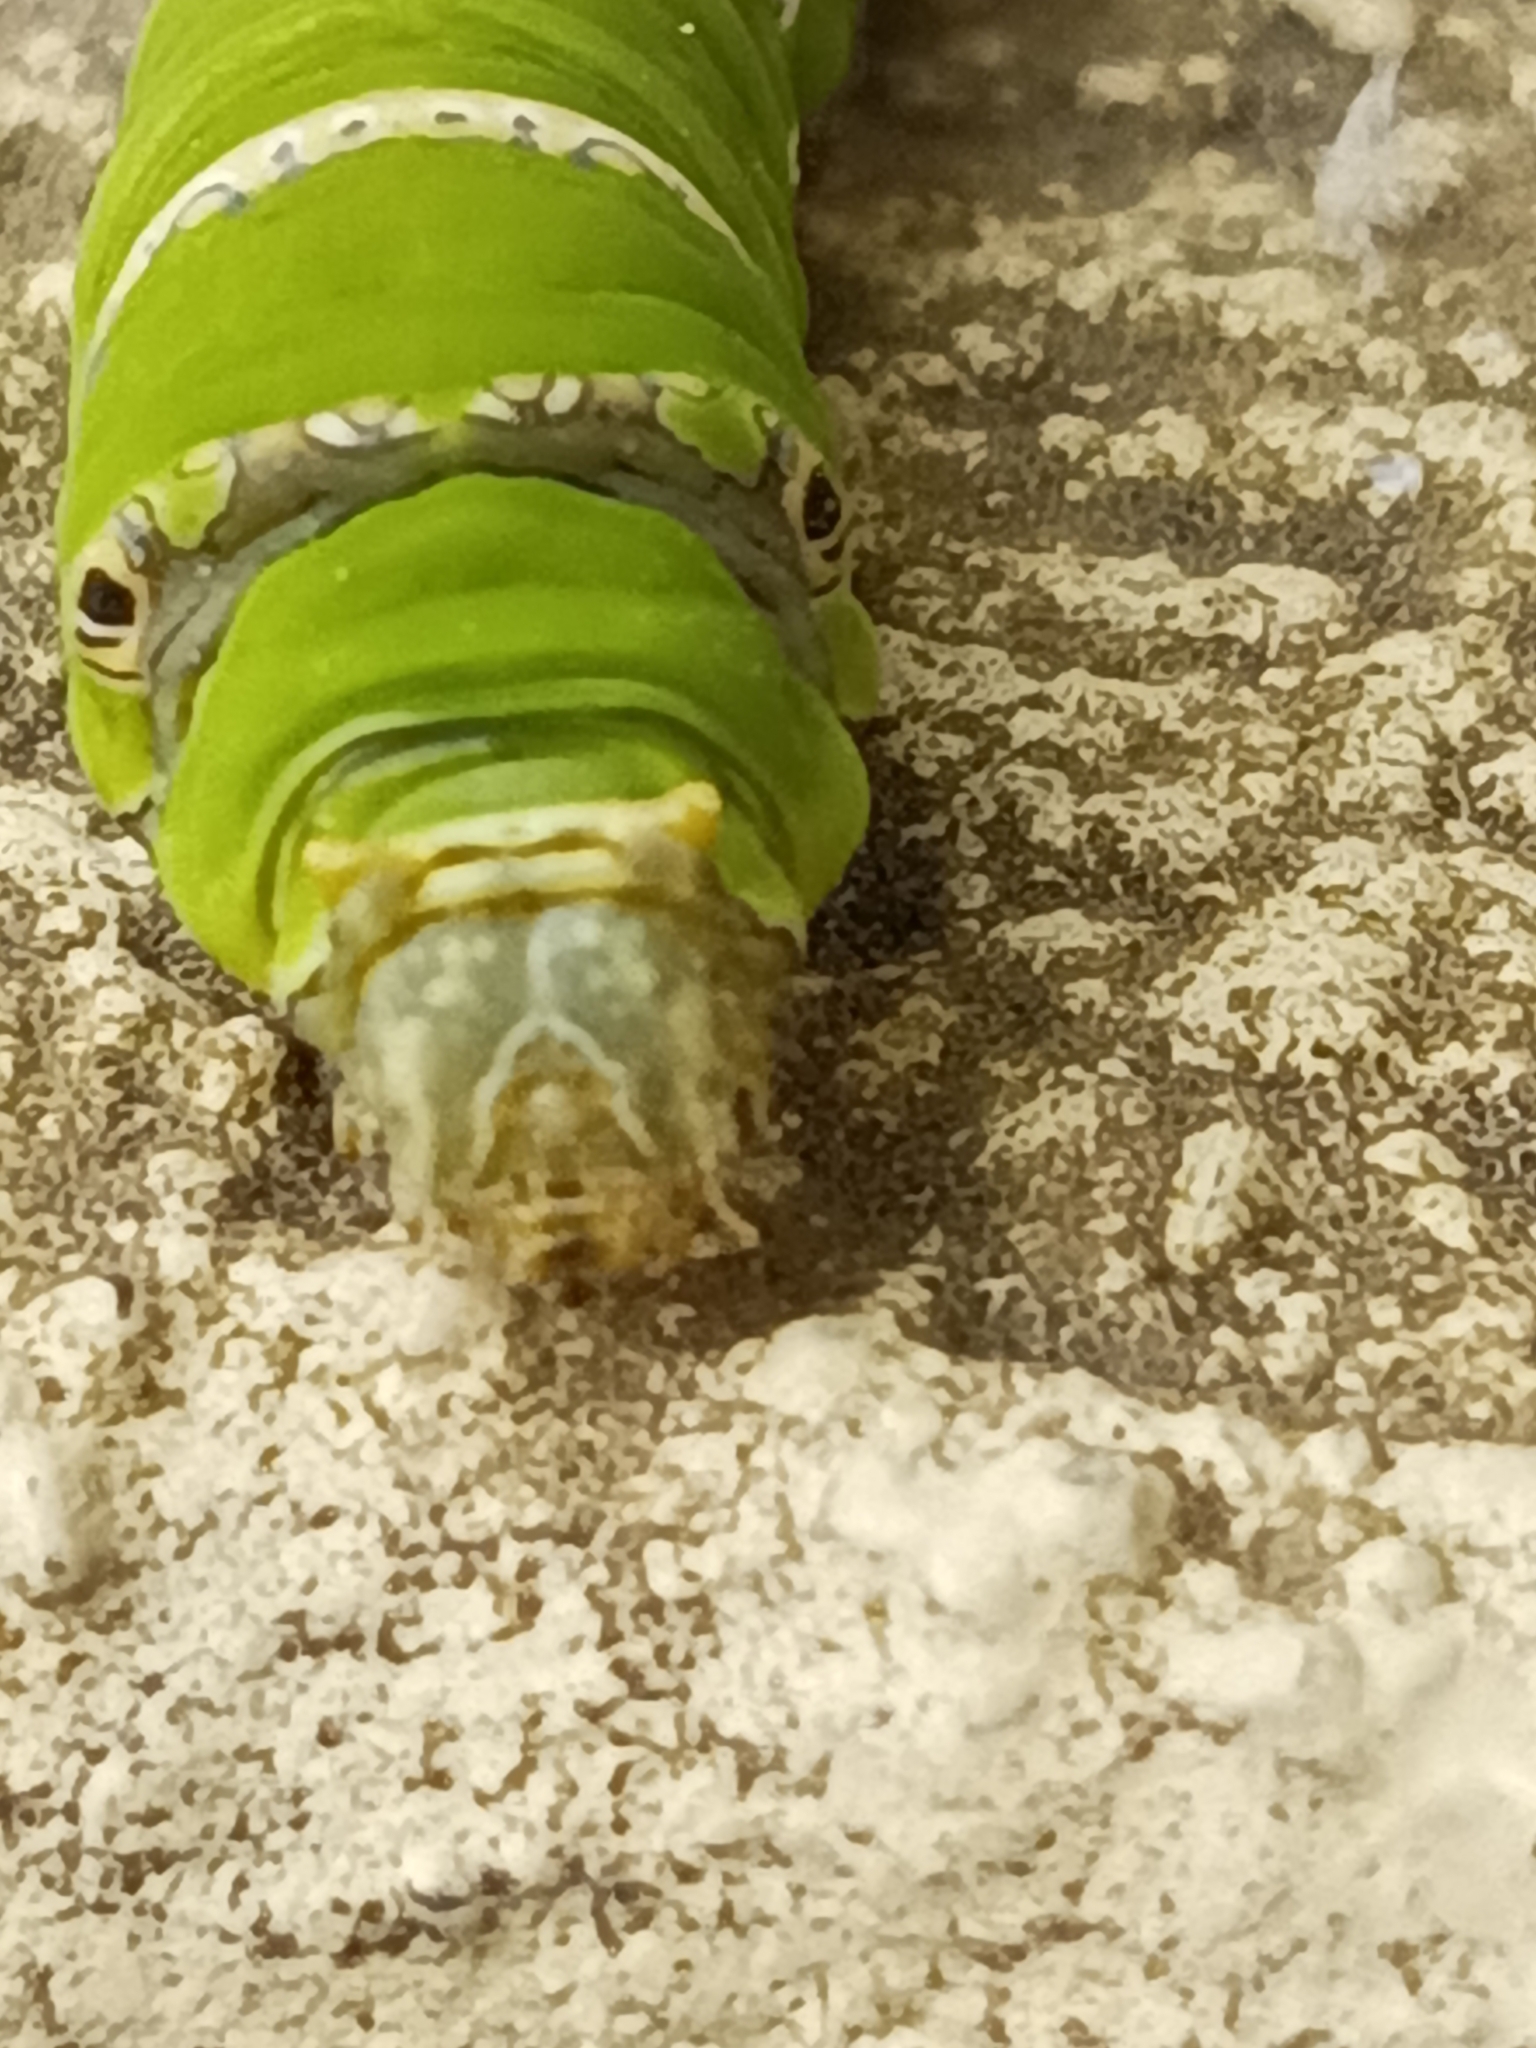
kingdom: Animalia
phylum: Arthropoda
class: Insecta
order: Lepidoptera
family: Papilionidae
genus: Papilio
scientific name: Papilio demoleus
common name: Lime butterfly
